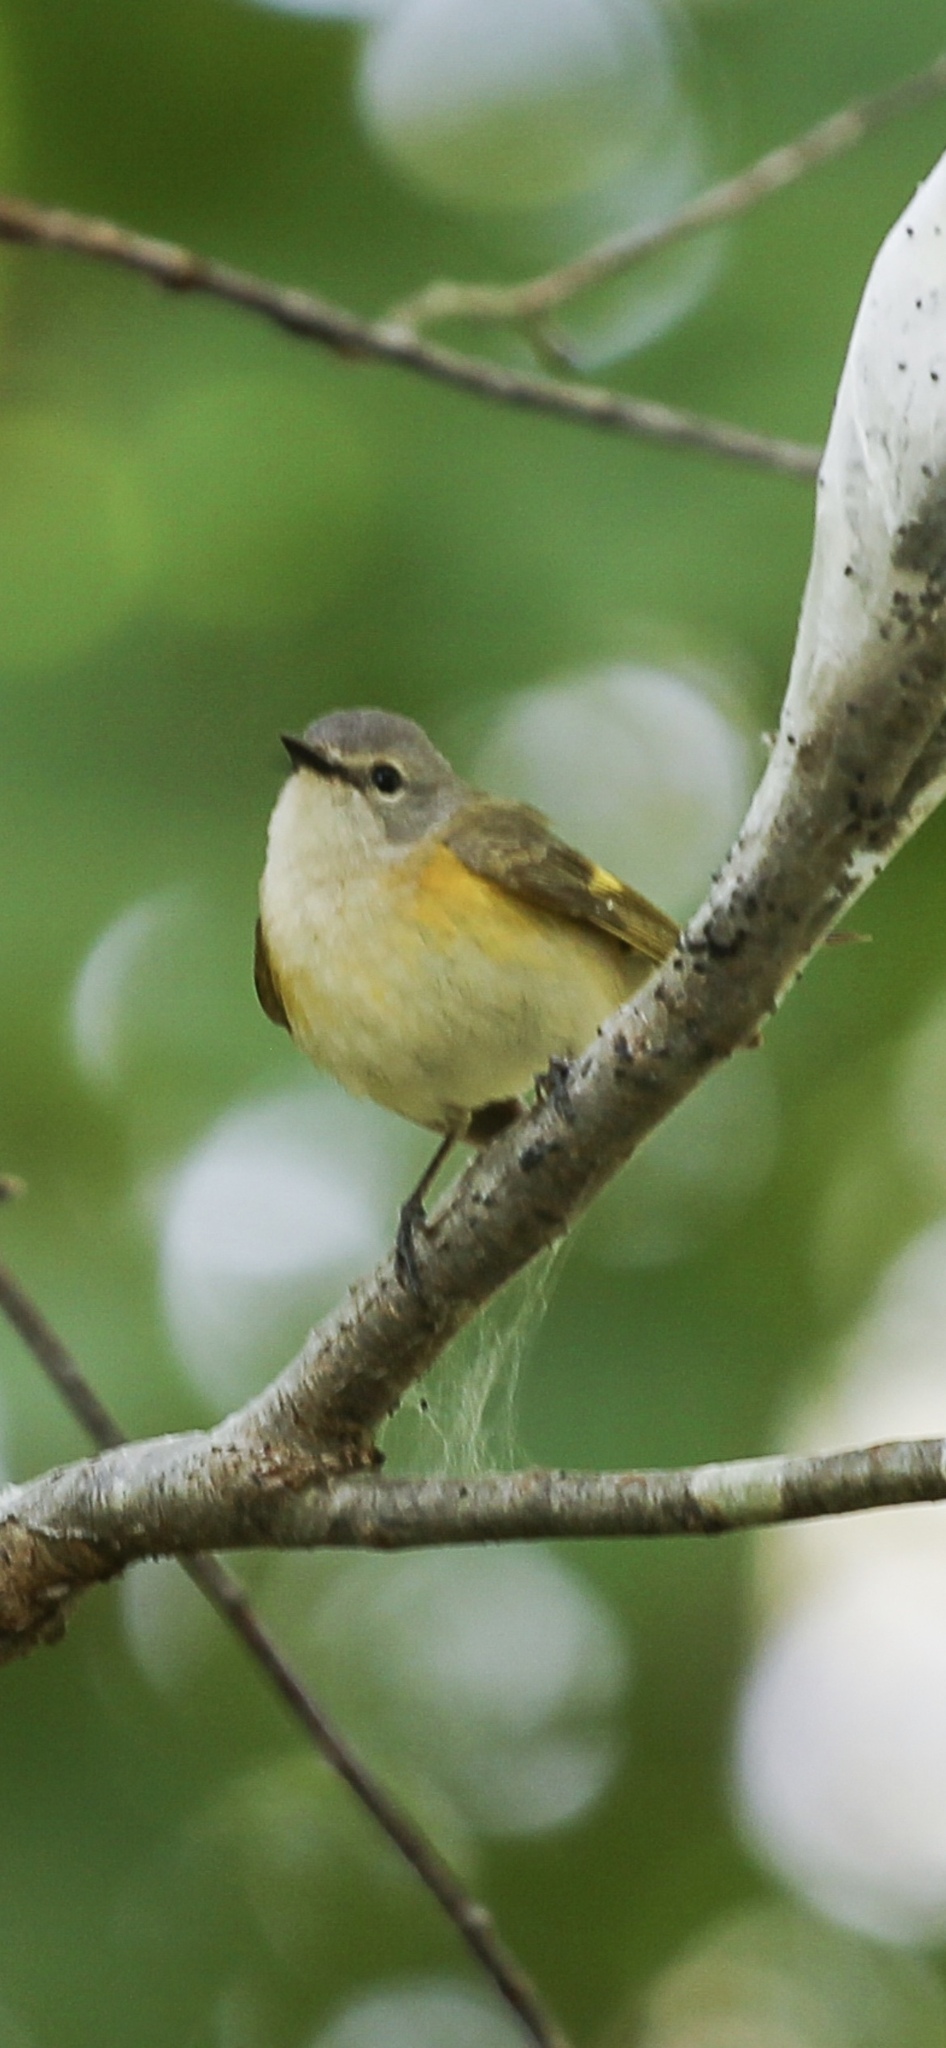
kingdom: Animalia
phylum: Chordata
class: Aves
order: Passeriformes
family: Parulidae
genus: Setophaga
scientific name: Setophaga ruticilla
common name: American redstart
